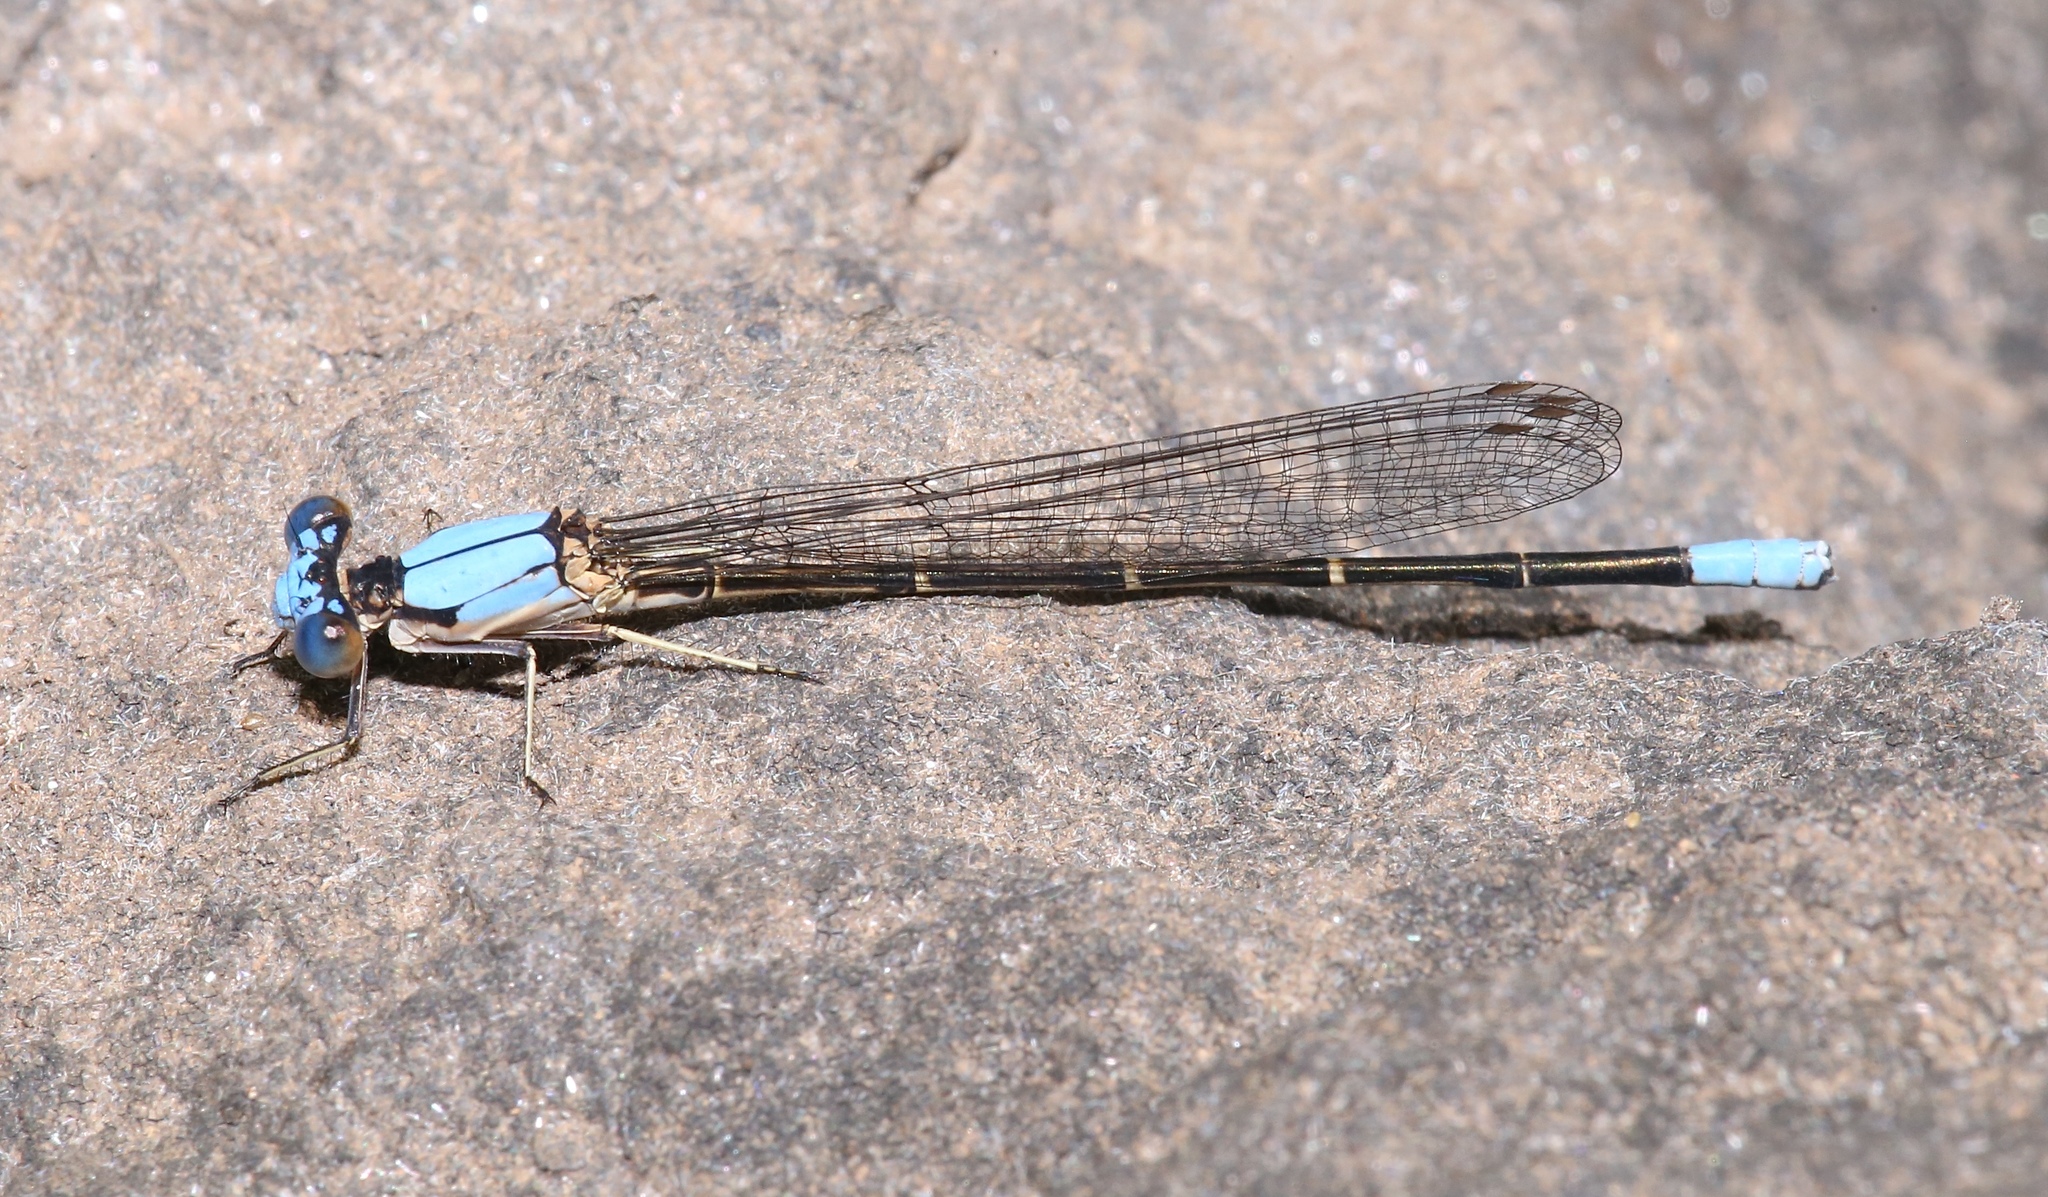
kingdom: Animalia
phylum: Arthropoda
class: Insecta
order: Odonata
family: Coenagrionidae
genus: Argia
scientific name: Argia apicalis
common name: Blue-fronted dancer
